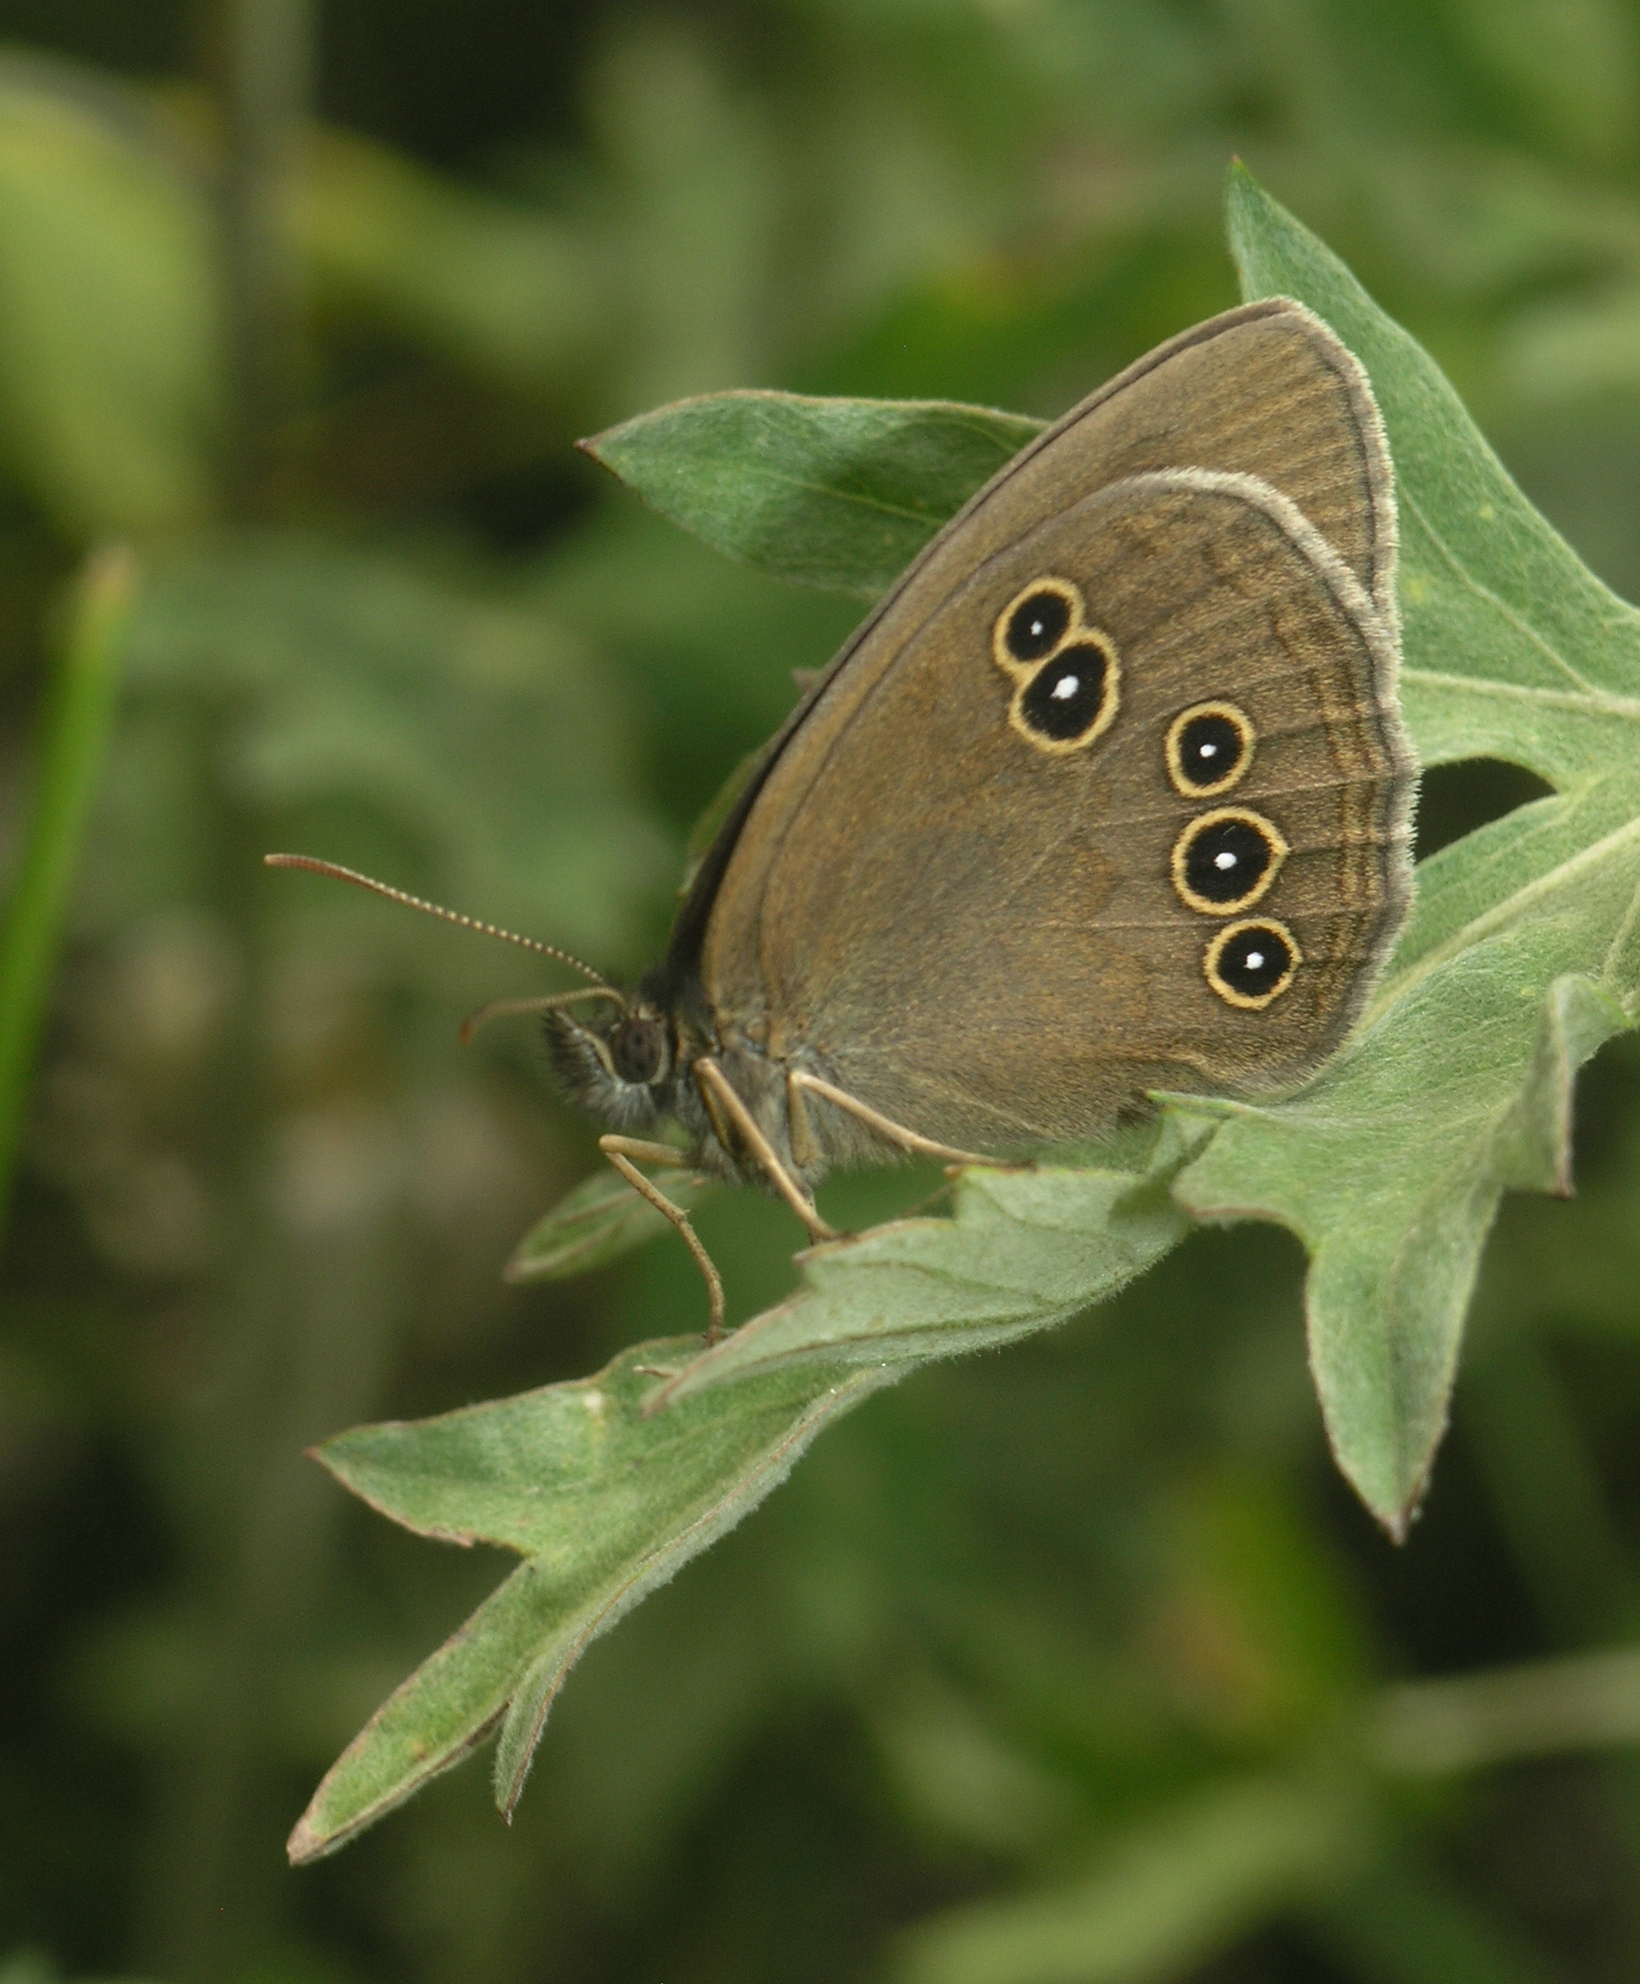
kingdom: Animalia
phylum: Arthropoda
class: Insecta
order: Lepidoptera
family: Nymphalidae
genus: Aphantopus
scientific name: Aphantopus hyperantus
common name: Ringlet
